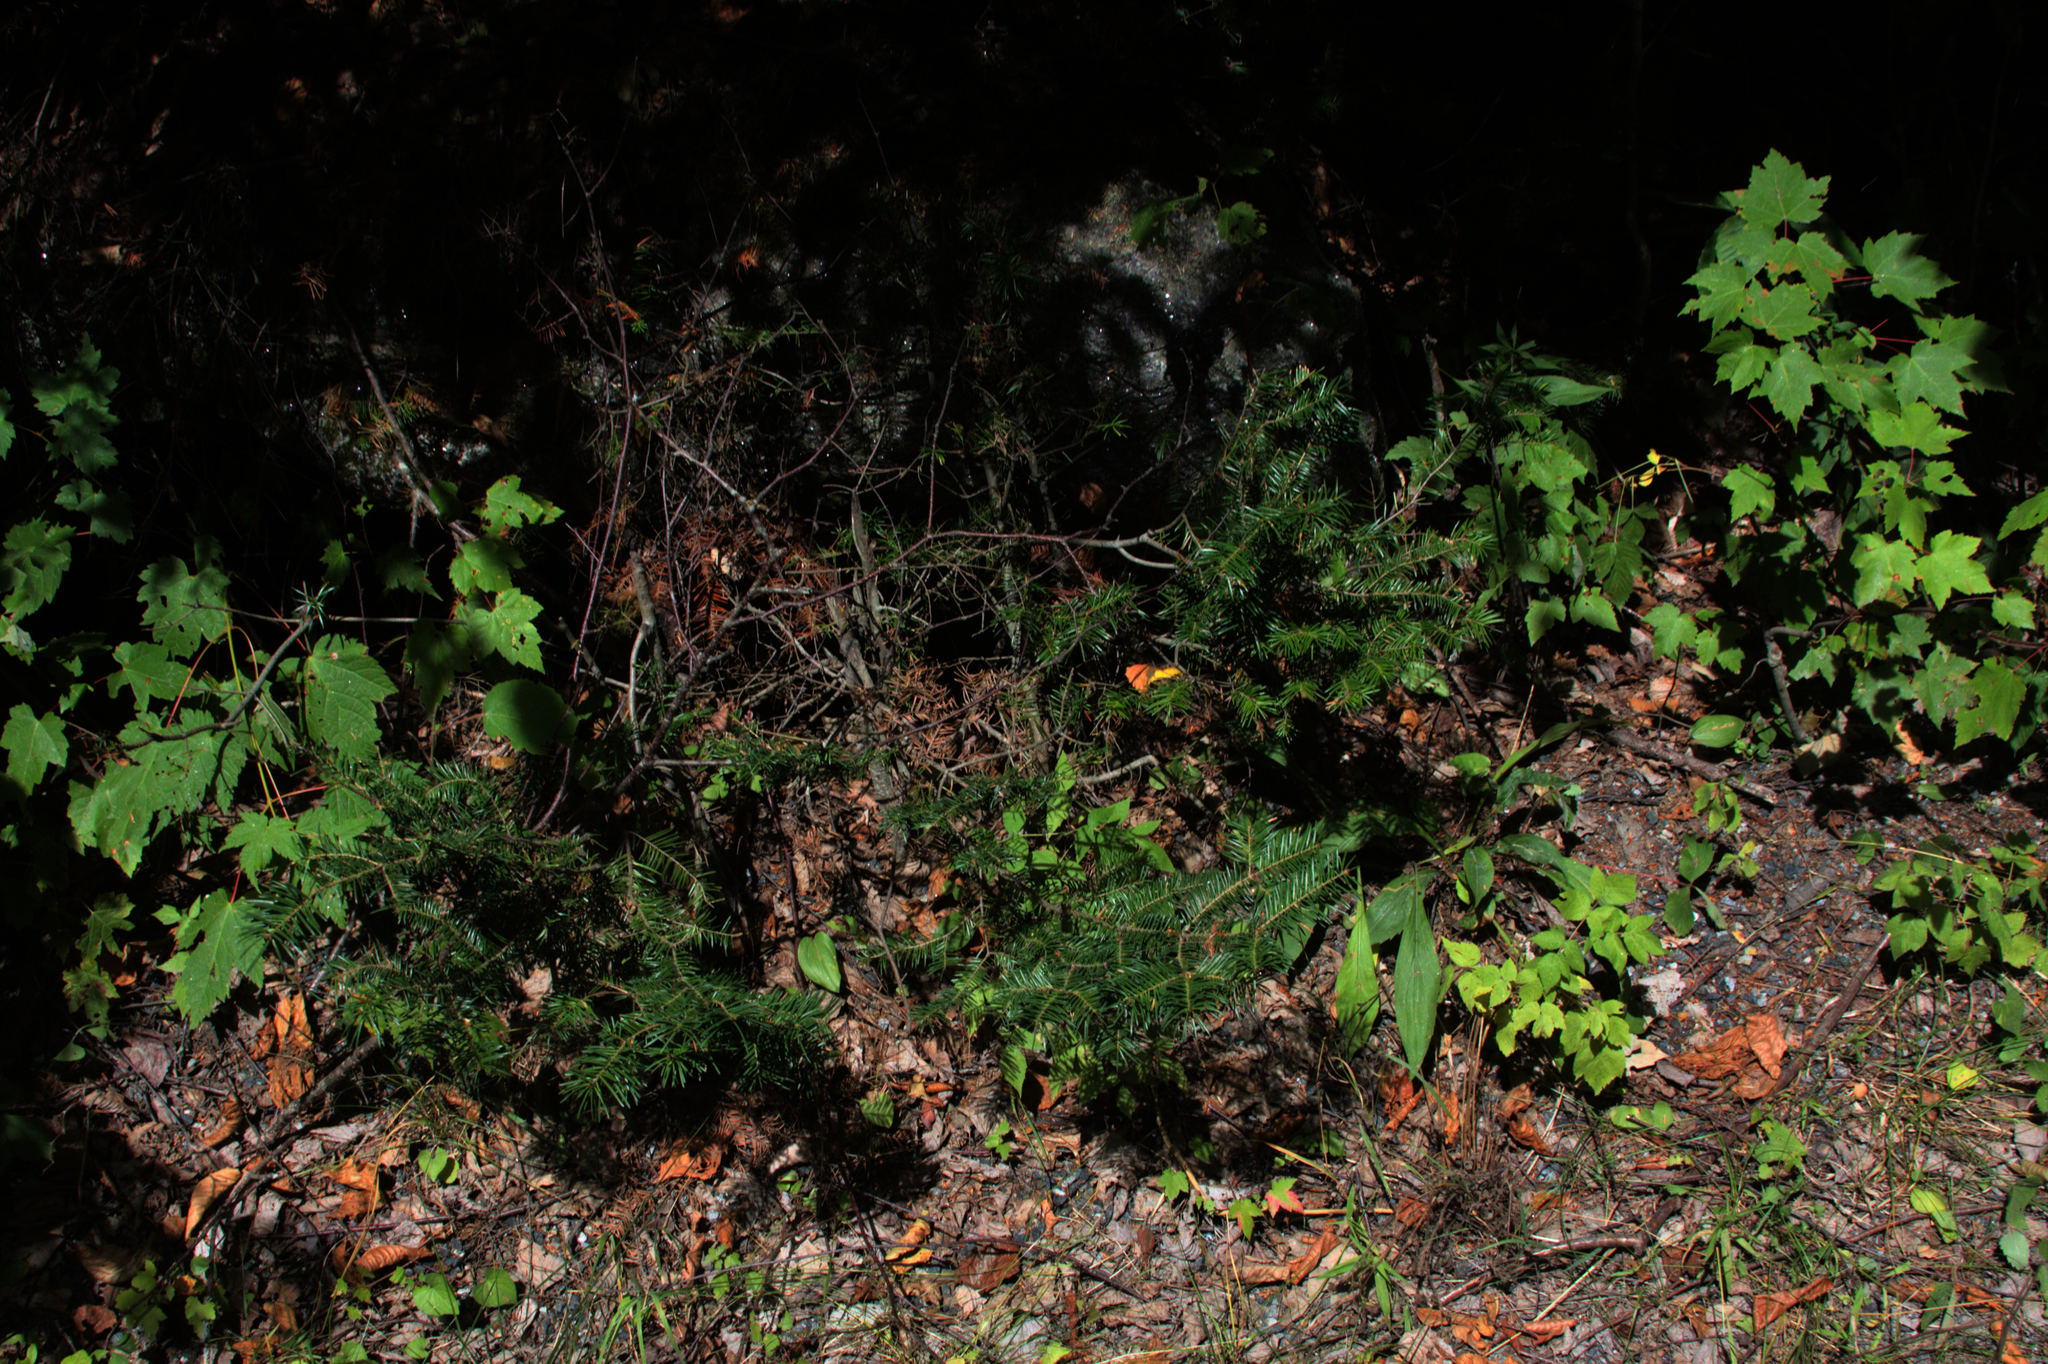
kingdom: Plantae
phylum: Tracheophyta
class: Pinopsida
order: Pinales
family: Pinaceae
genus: Abies
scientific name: Abies balsamea
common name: Balsam fir
